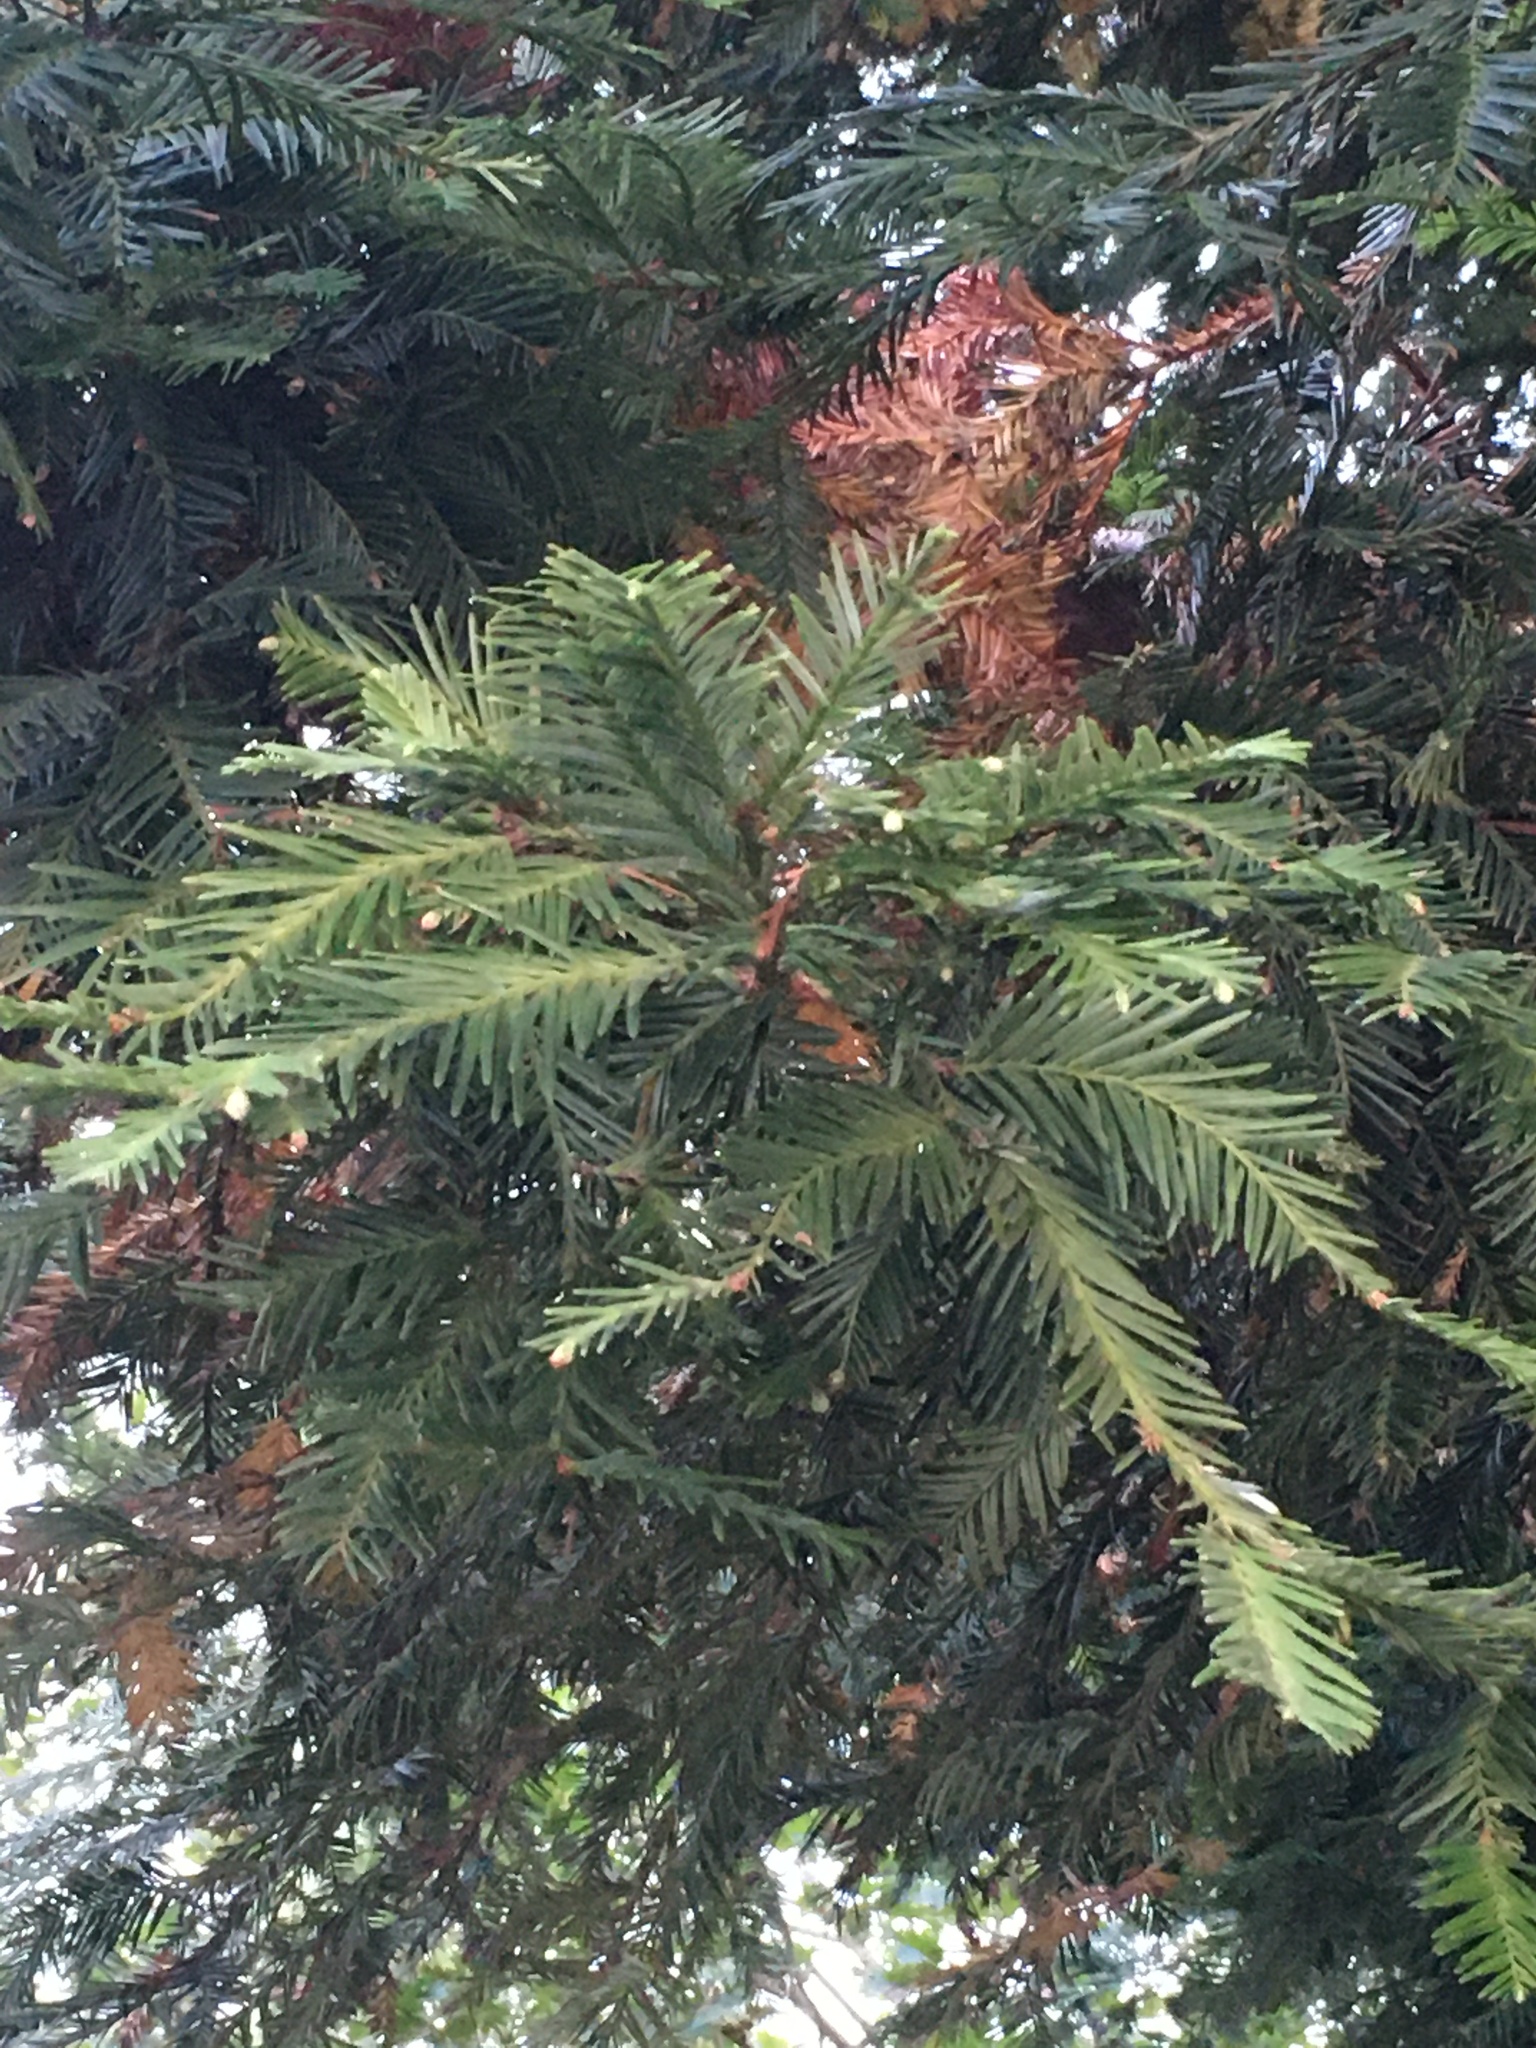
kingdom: Plantae
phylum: Tracheophyta
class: Pinopsida
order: Pinales
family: Cupressaceae
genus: Sequoia
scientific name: Sequoia sempervirens
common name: Coast redwood
